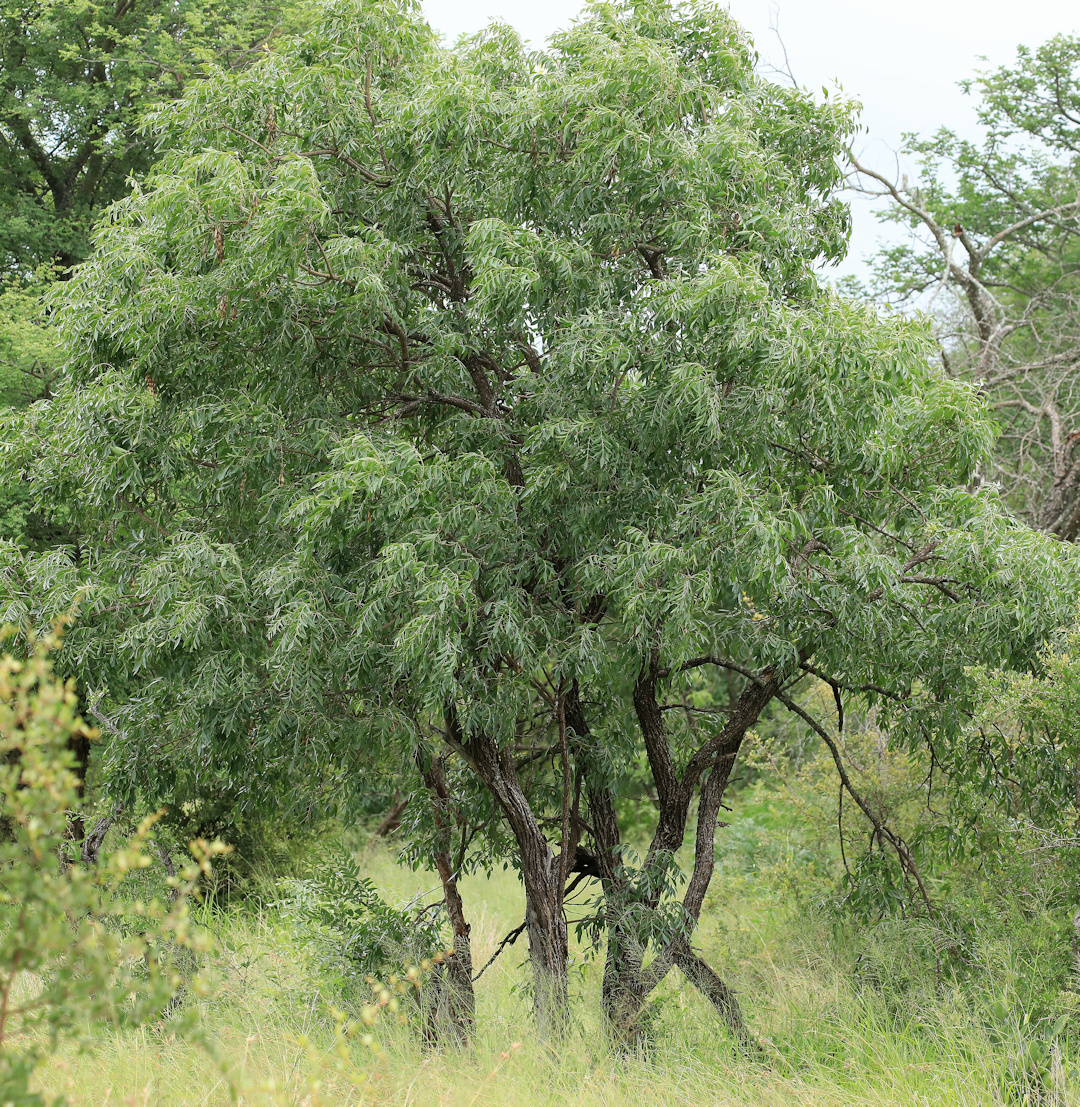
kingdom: Plantae
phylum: Tracheophyta
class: Magnoliopsida
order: Fabales
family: Fabaceae
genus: Bolusanthus
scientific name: Bolusanthus speciosus
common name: Tree wisteria
